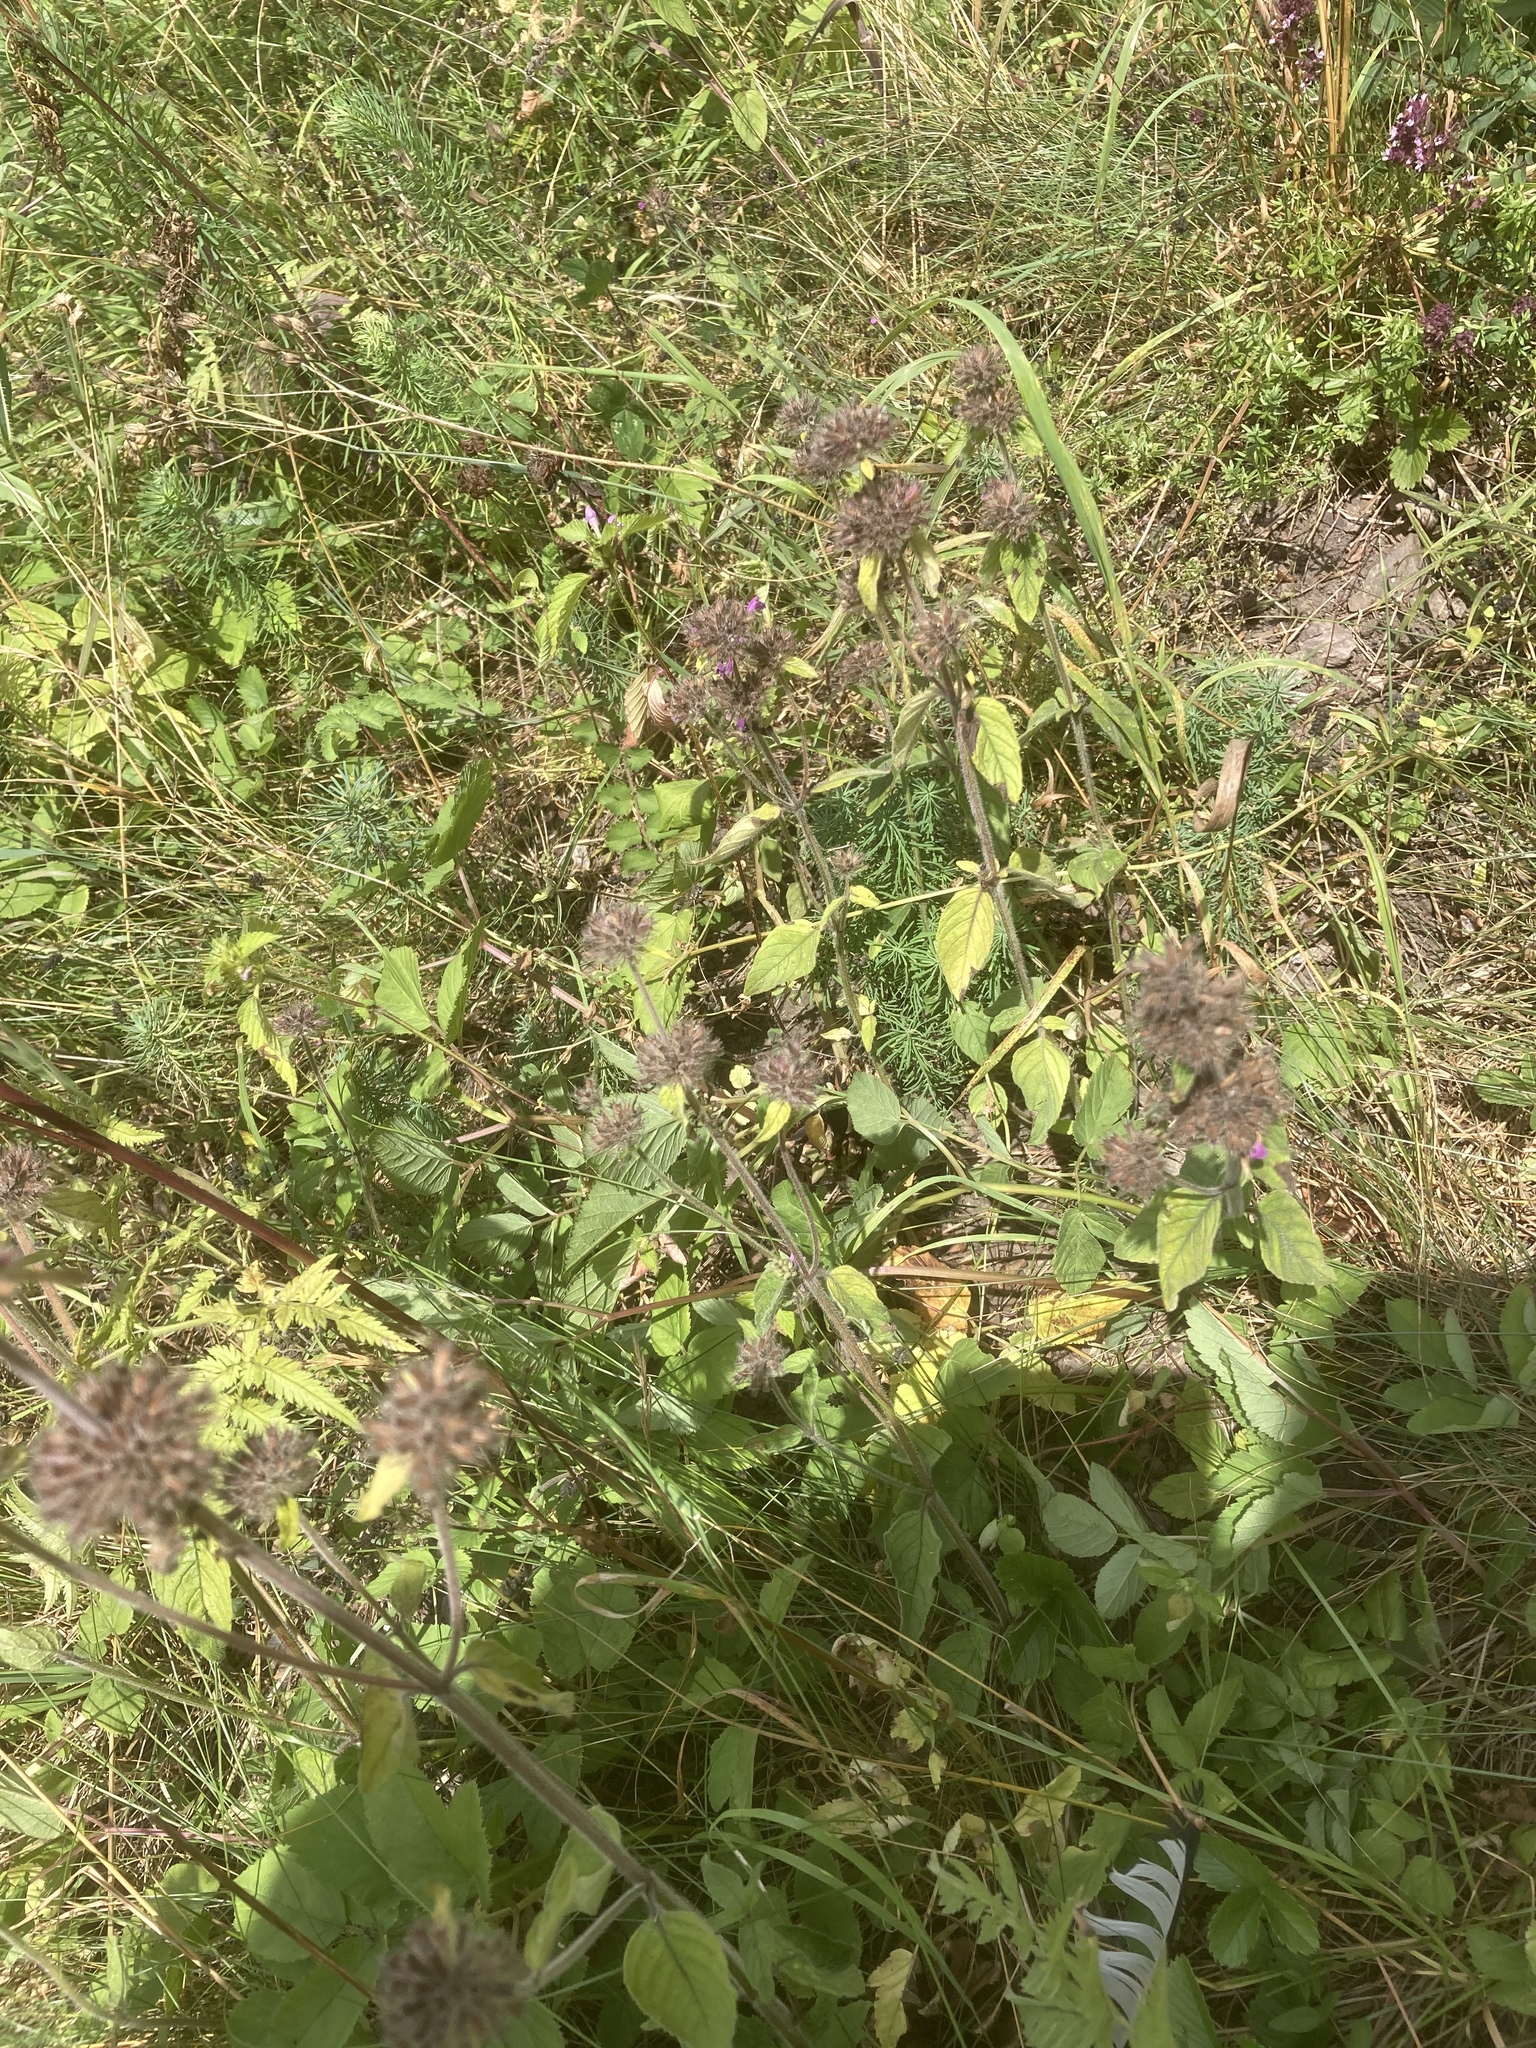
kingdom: Plantae
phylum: Tracheophyta
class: Magnoliopsida
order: Lamiales
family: Lamiaceae
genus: Clinopodium
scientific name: Clinopodium vulgare
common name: Wild basil
